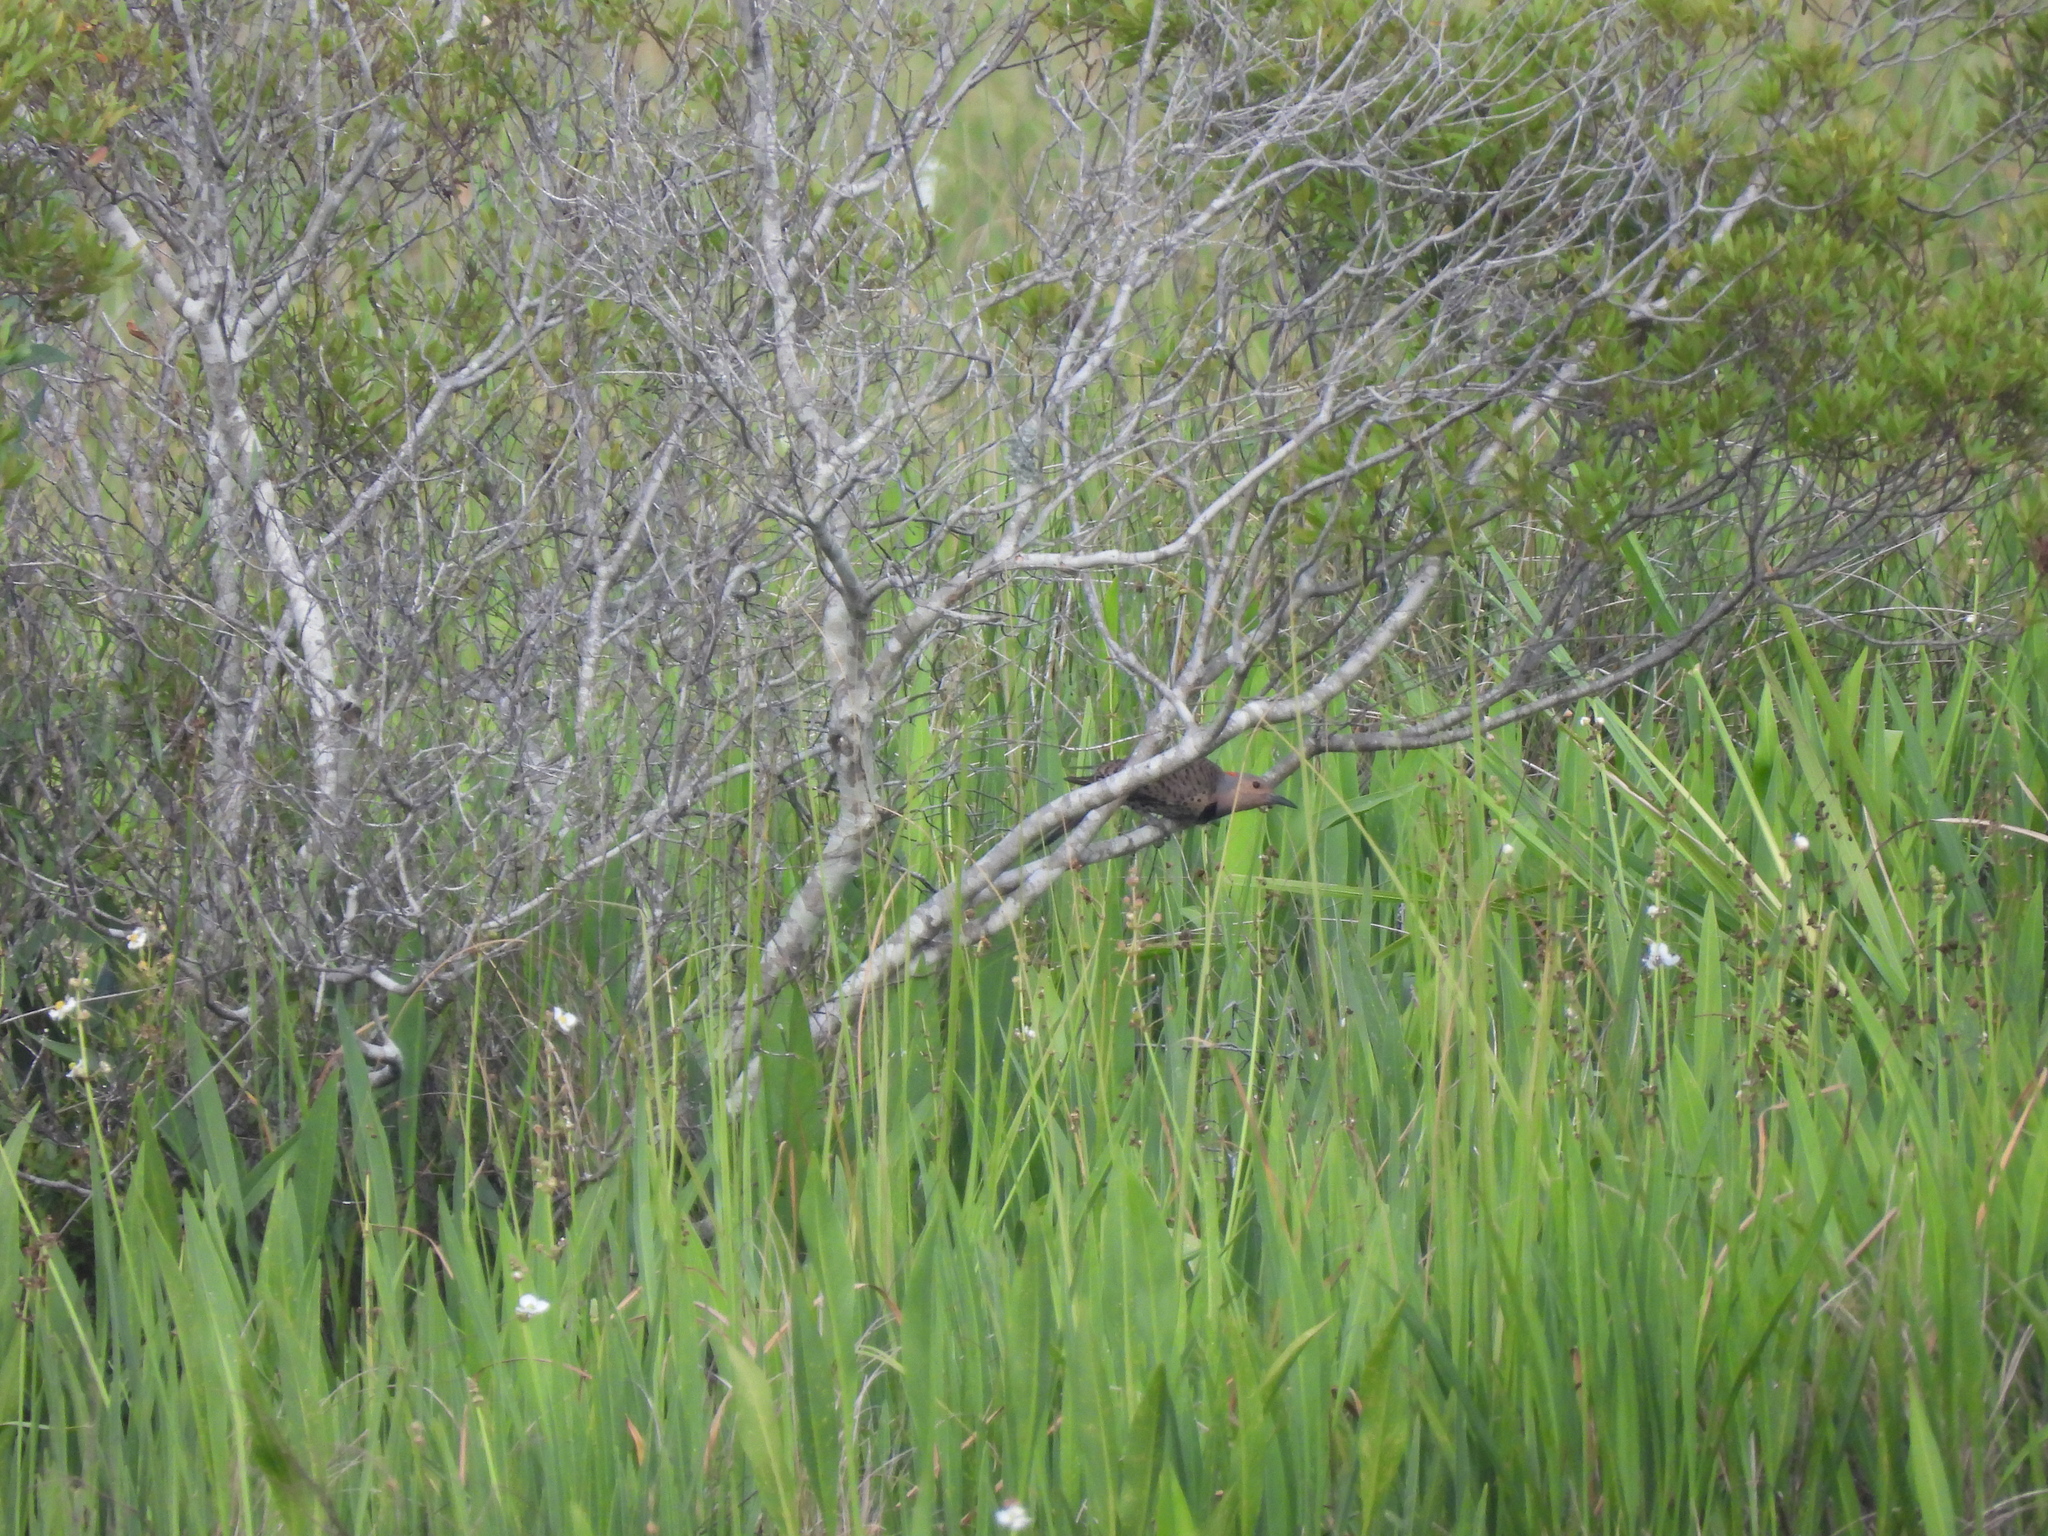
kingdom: Animalia
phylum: Chordata
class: Aves
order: Piciformes
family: Picidae
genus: Colaptes
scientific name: Colaptes auratus
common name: Northern flicker
